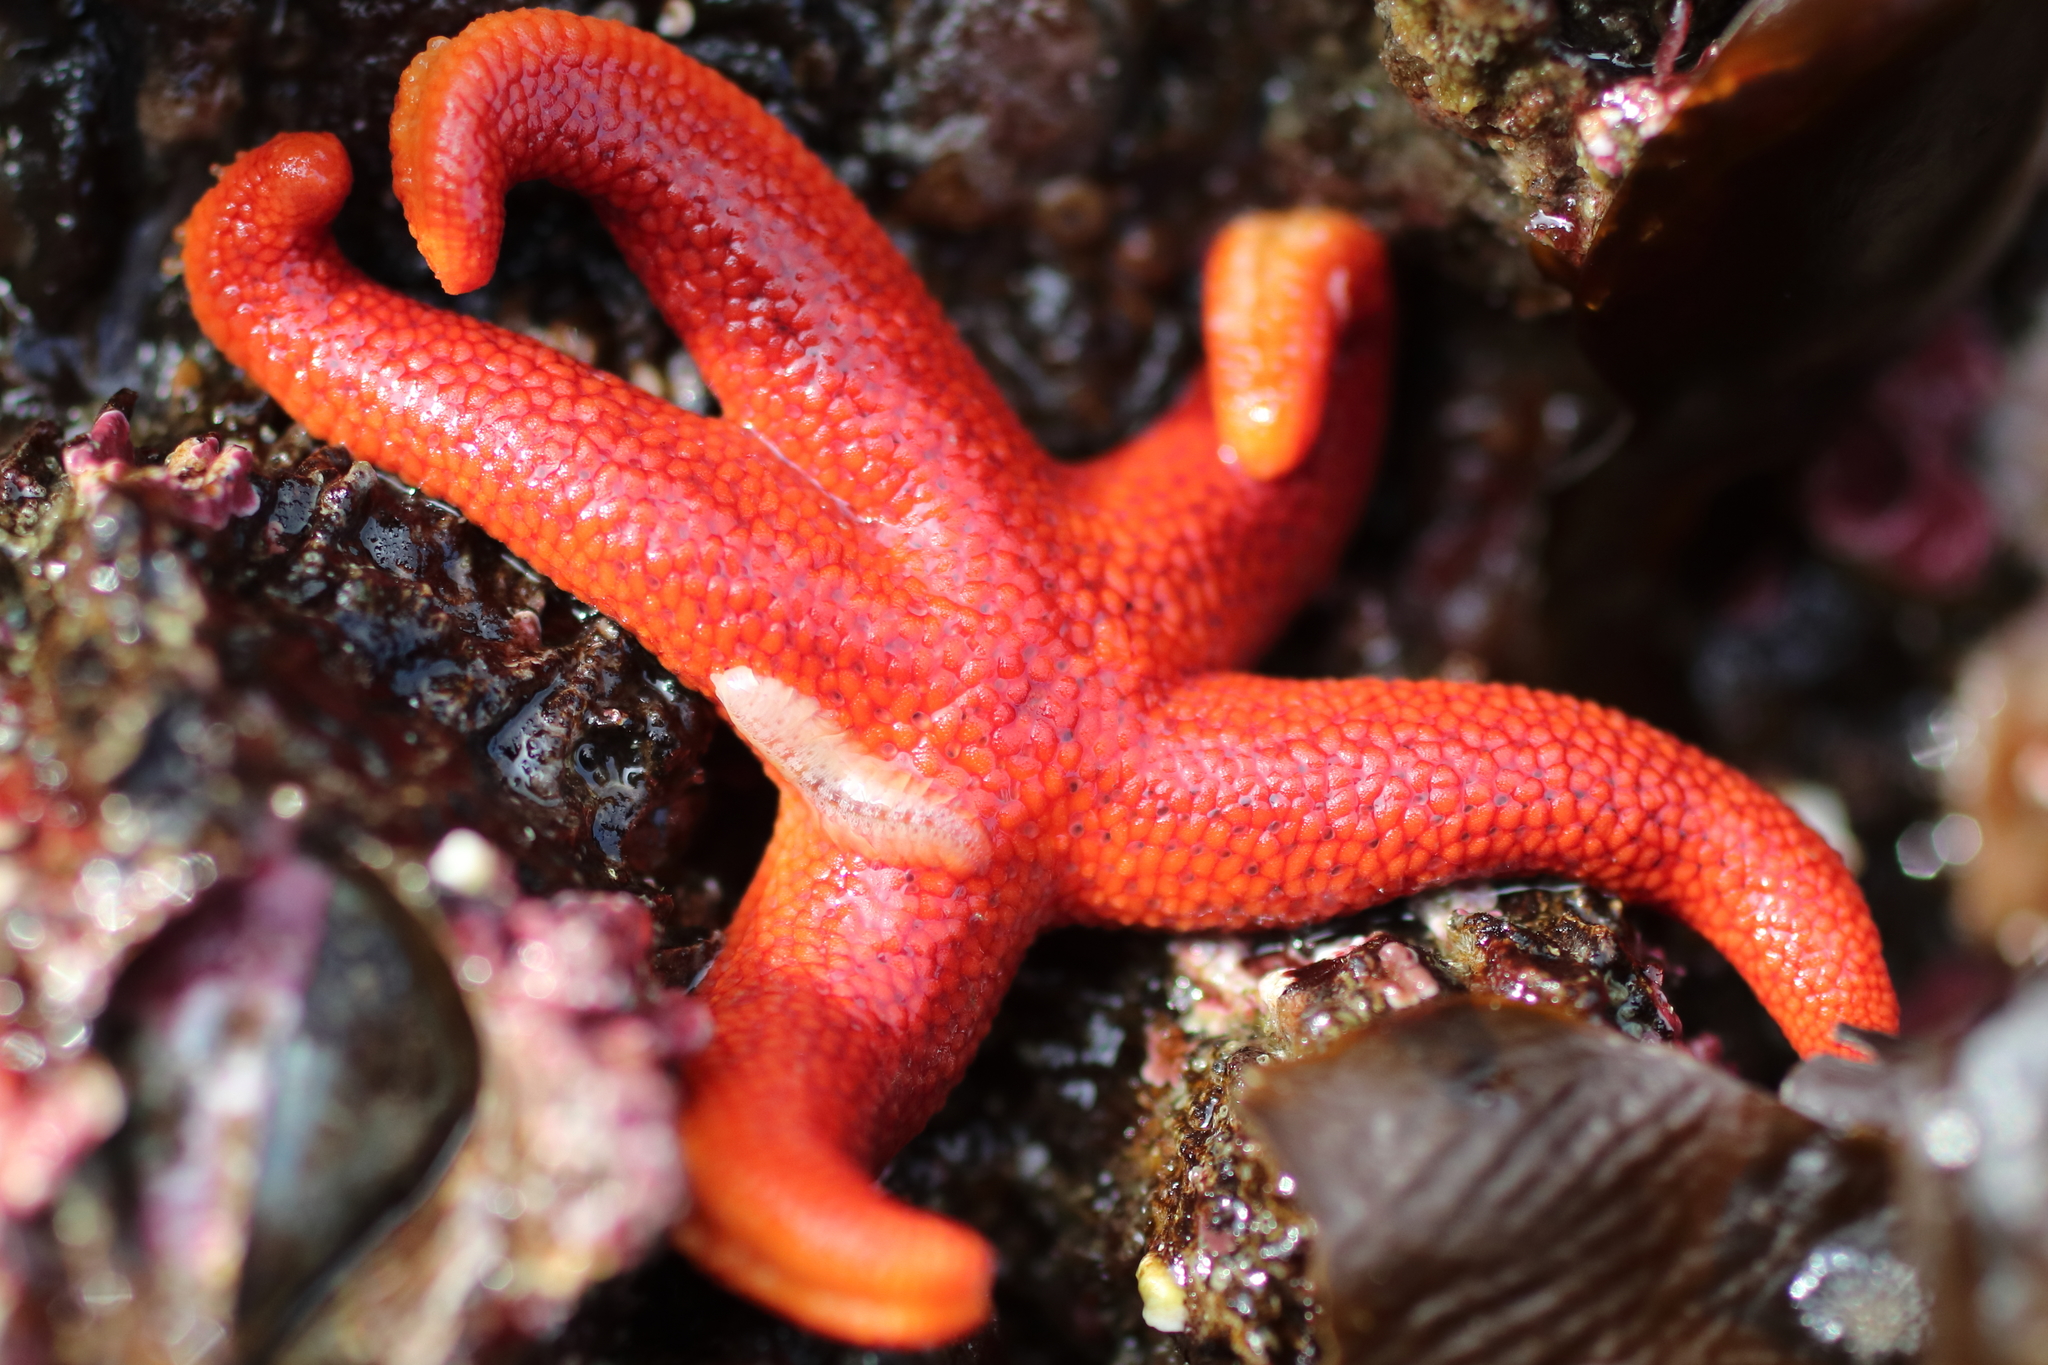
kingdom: Animalia
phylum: Echinodermata
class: Asteroidea
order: Spinulosida
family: Echinasteridae
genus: Henricia
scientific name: Henricia leviuscula
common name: Pacific blood star
